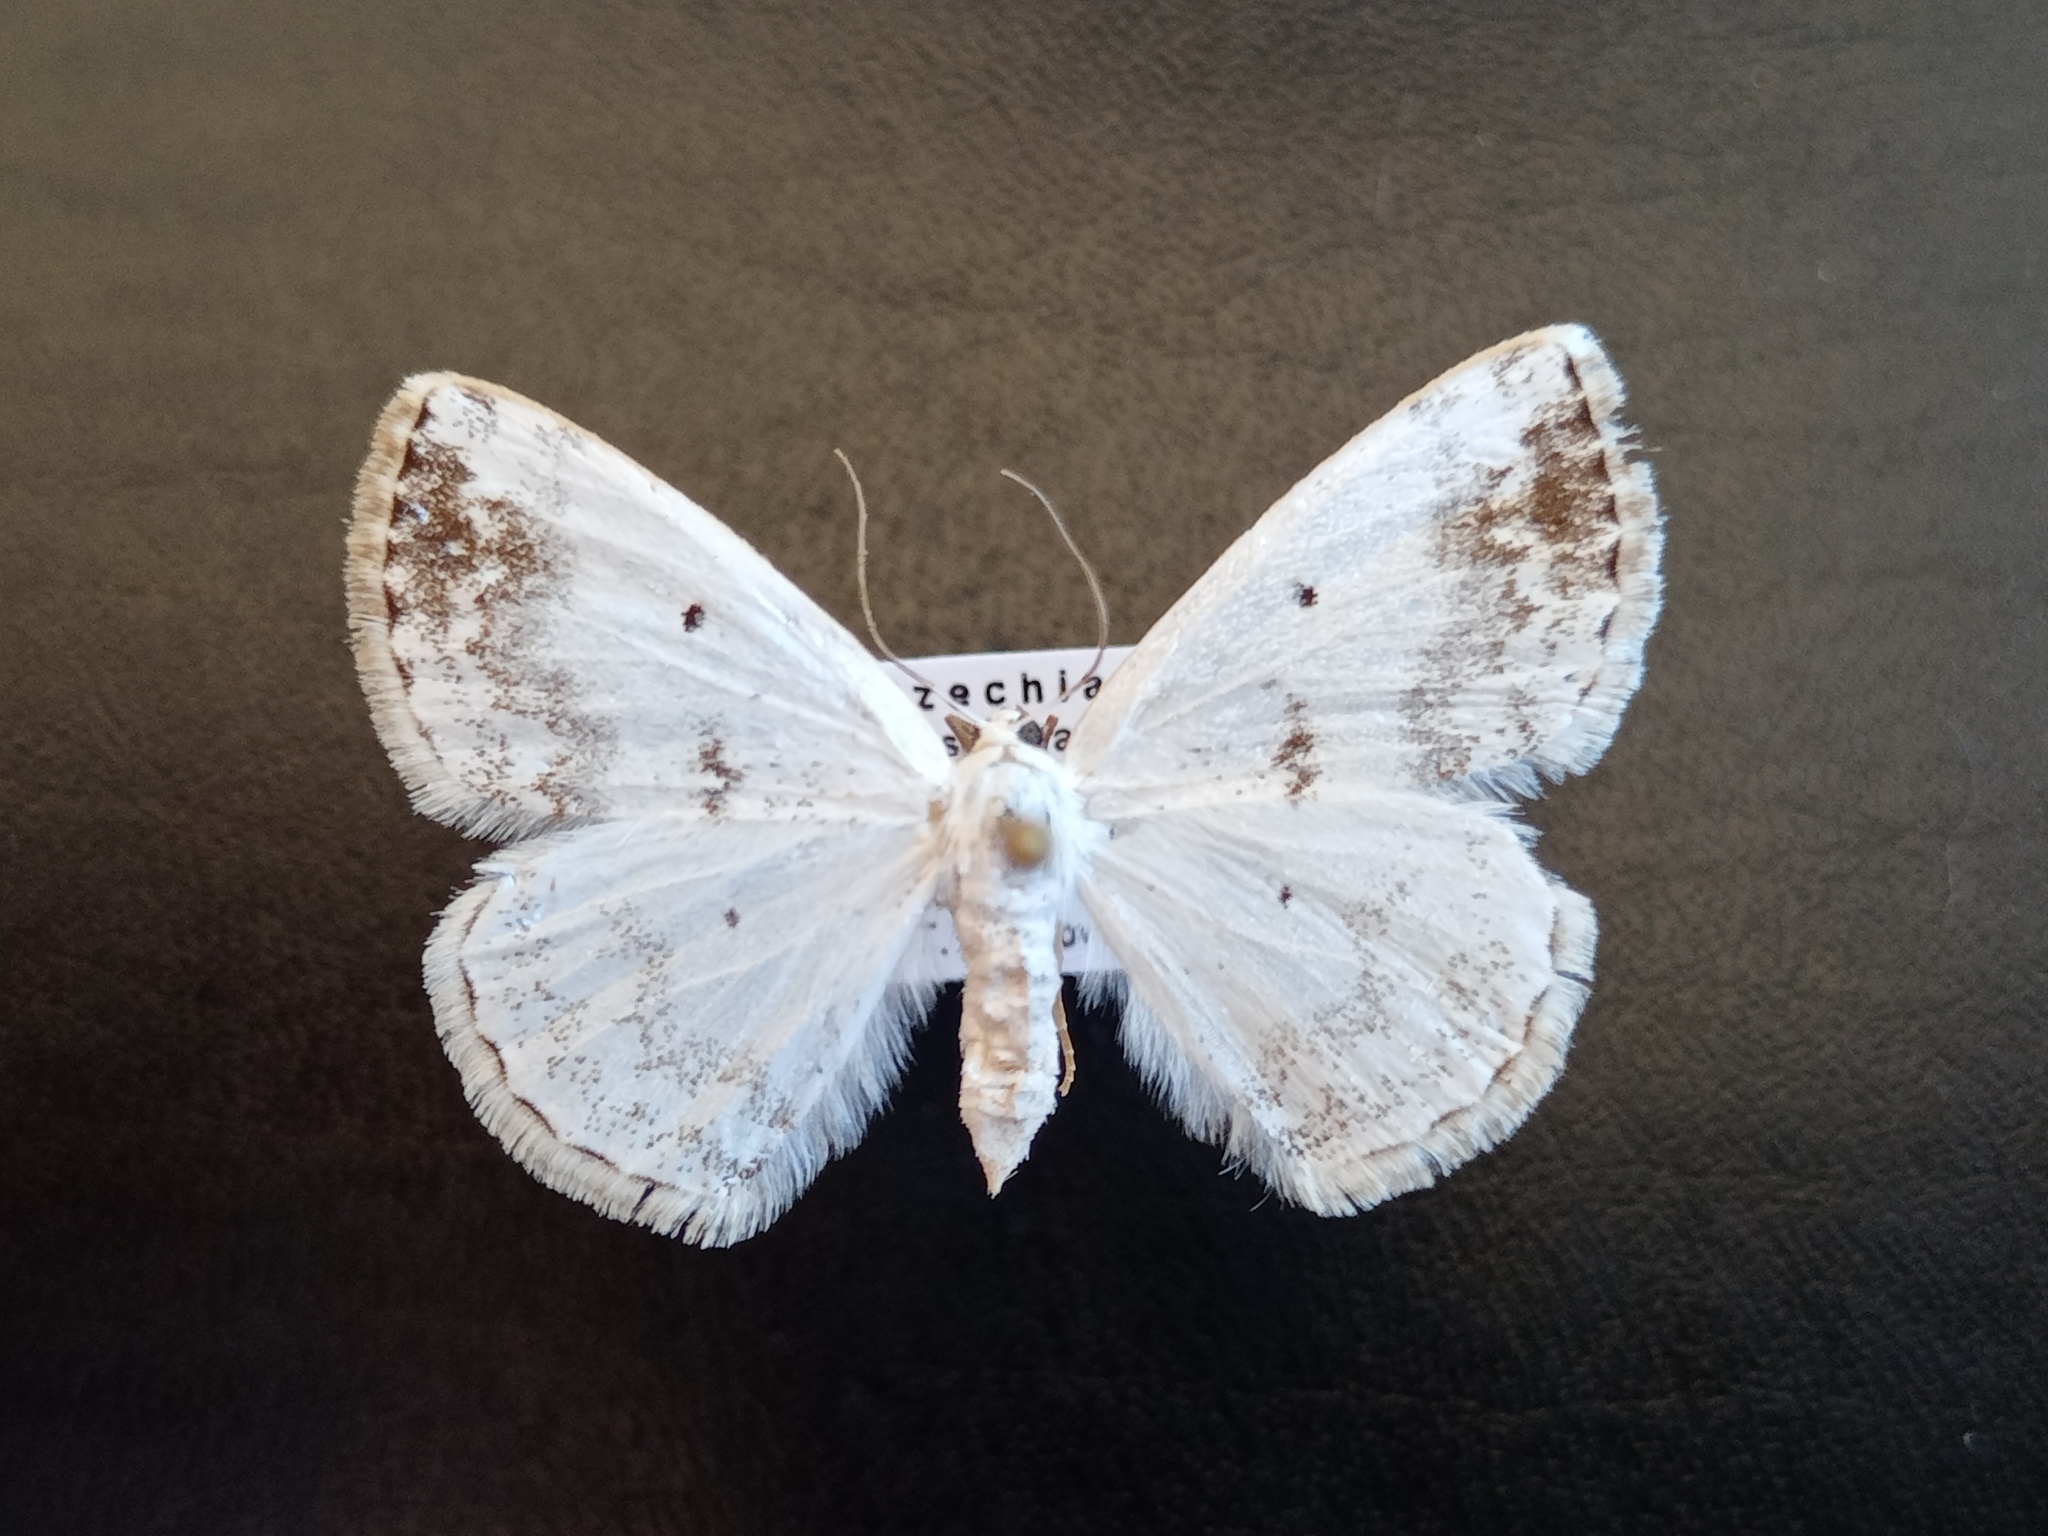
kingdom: Animalia
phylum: Arthropoda
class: Insecta
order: Lepidoptera
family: Geometridae
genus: Lomographa
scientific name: Lomographa temerata
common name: Clouded silver
